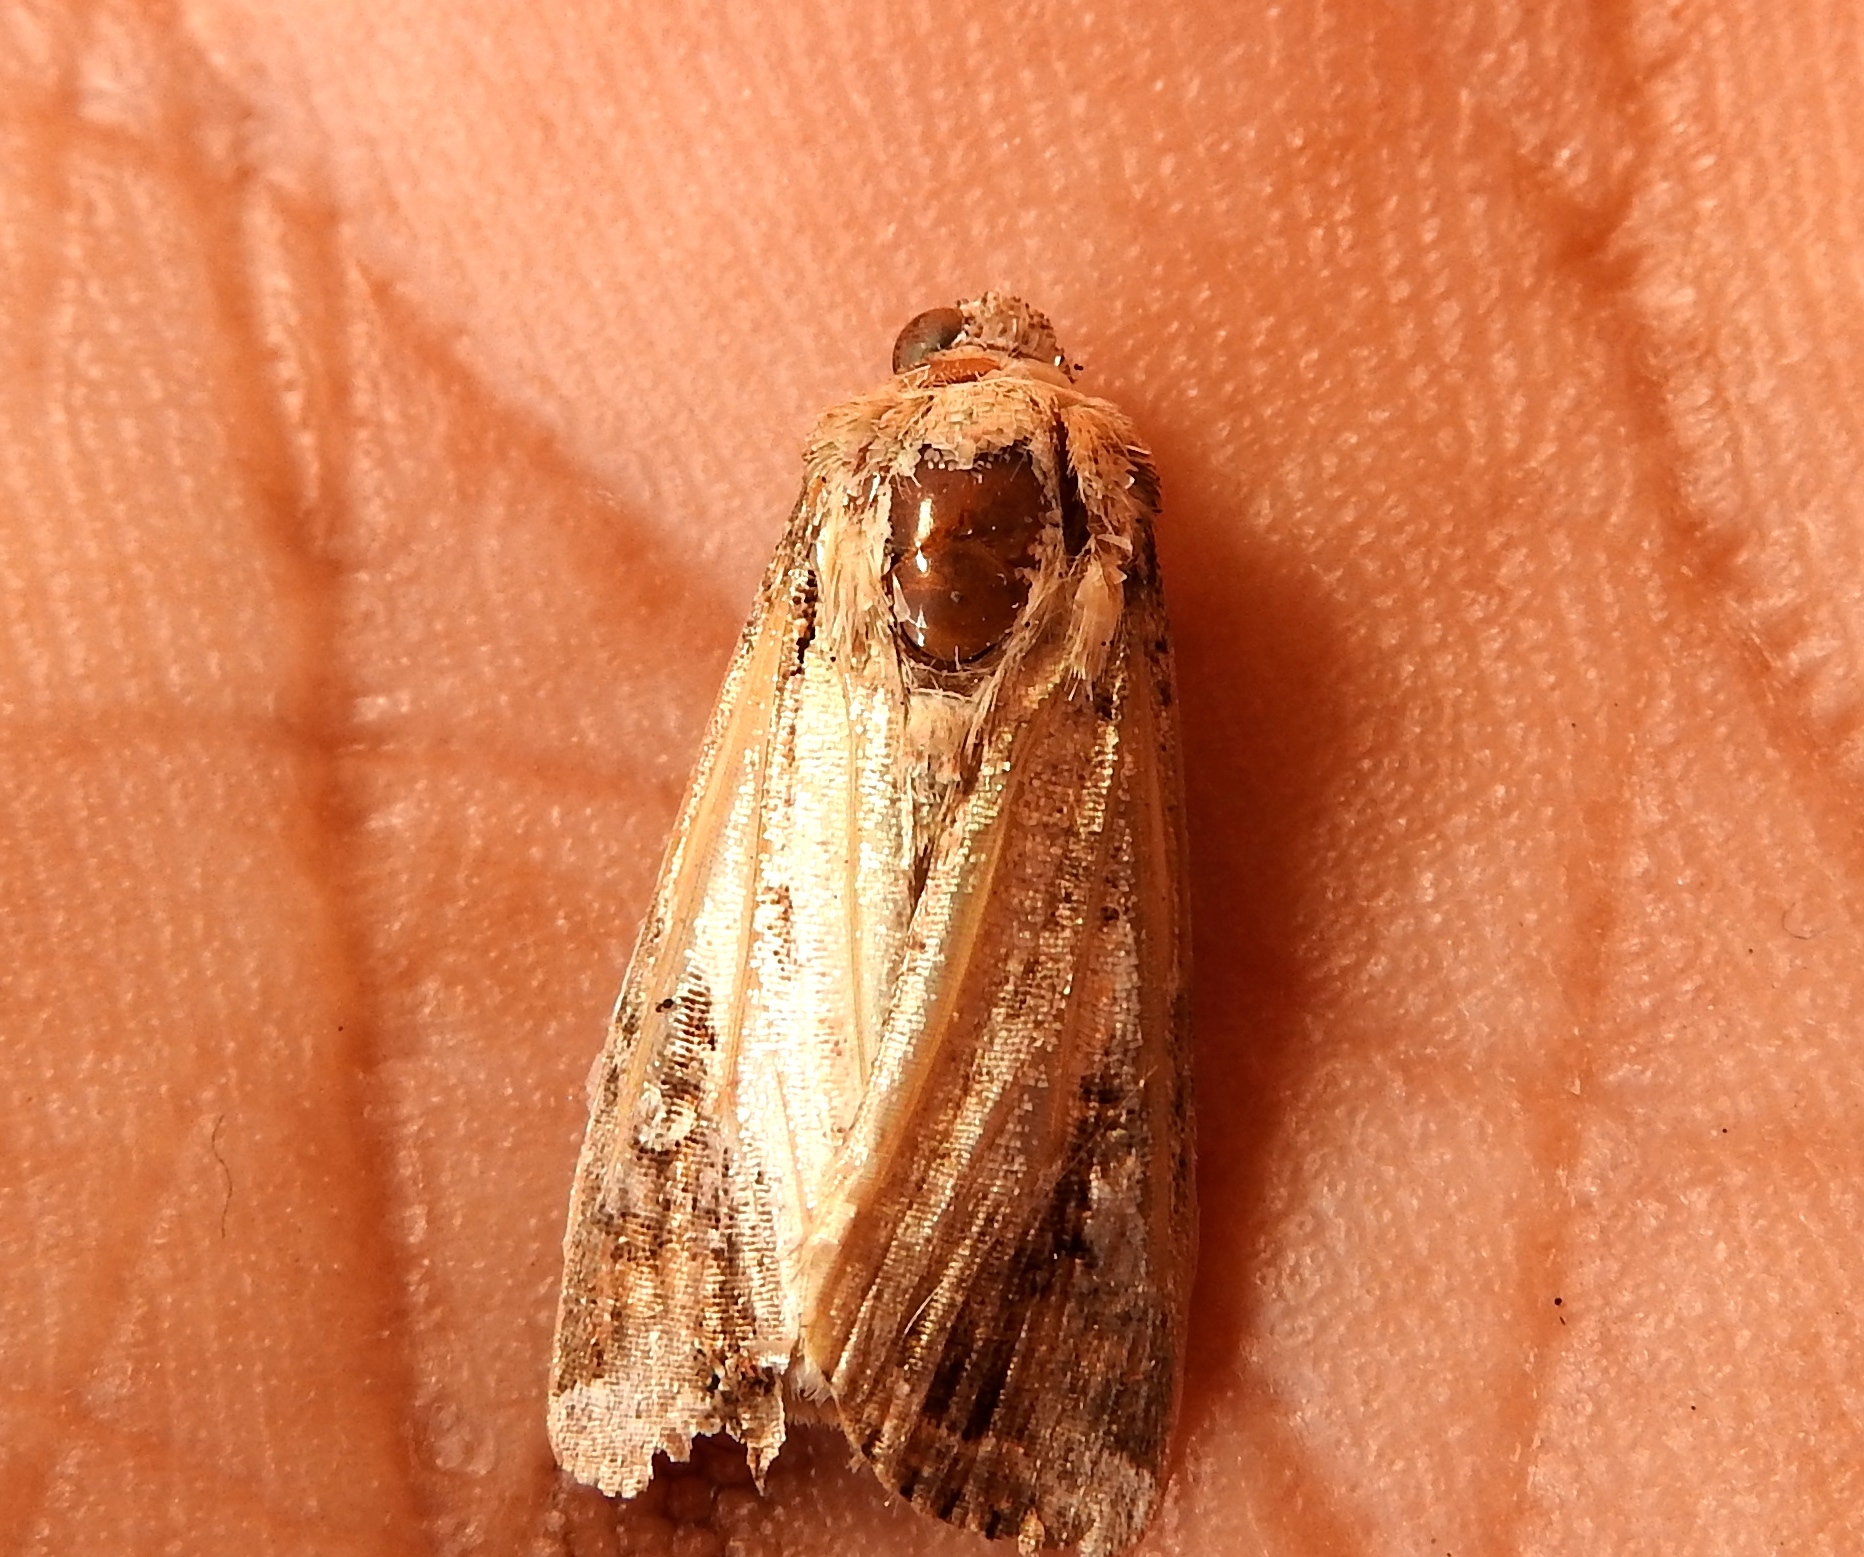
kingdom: Animalia
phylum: Arthropoda
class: Insecta
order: Lepidoptera
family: Noctuidae
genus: Magusa
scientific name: Magusa divaricata
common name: Orb narrow-winged moth
